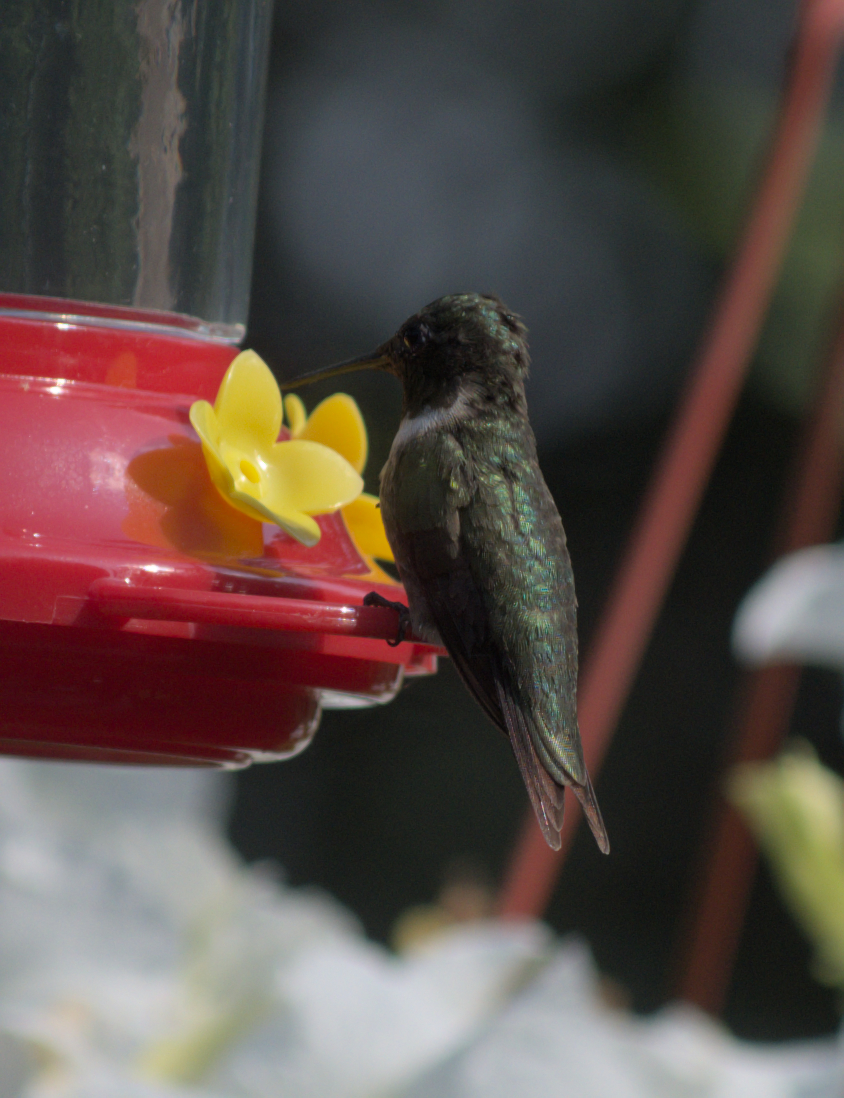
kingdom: Animalia
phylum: Chordata
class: Aves
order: Apodiformes
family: Trochilidae
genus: Archilochus
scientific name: Archilochus colubris
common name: Ruby-throated hummingbird
